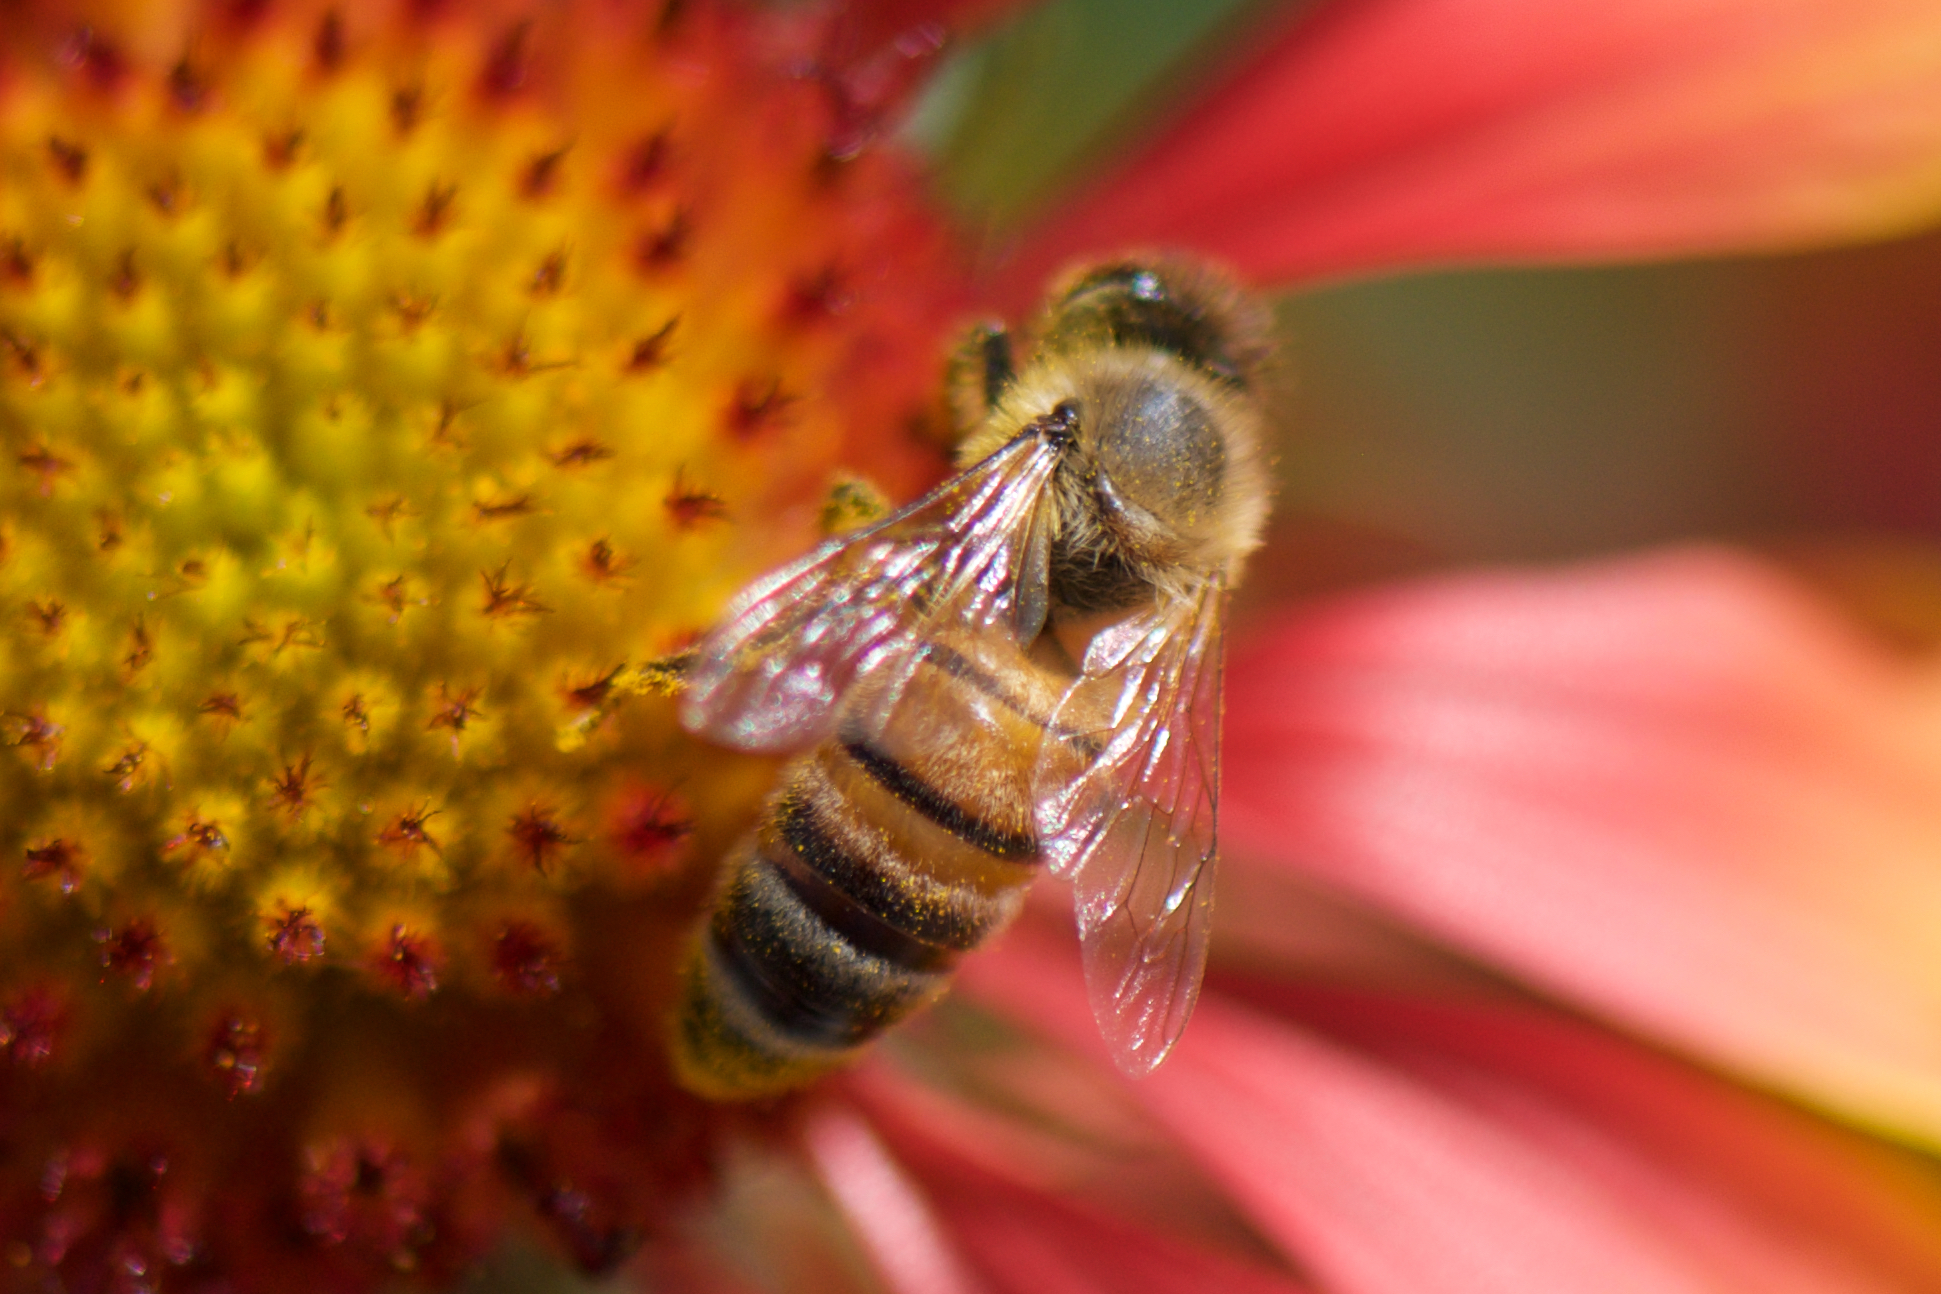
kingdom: Animalia
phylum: Arthropoda
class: Insecta
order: Hymenoptera
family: Apidae
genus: Apis
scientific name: Apis mellifera
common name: Honey bee
